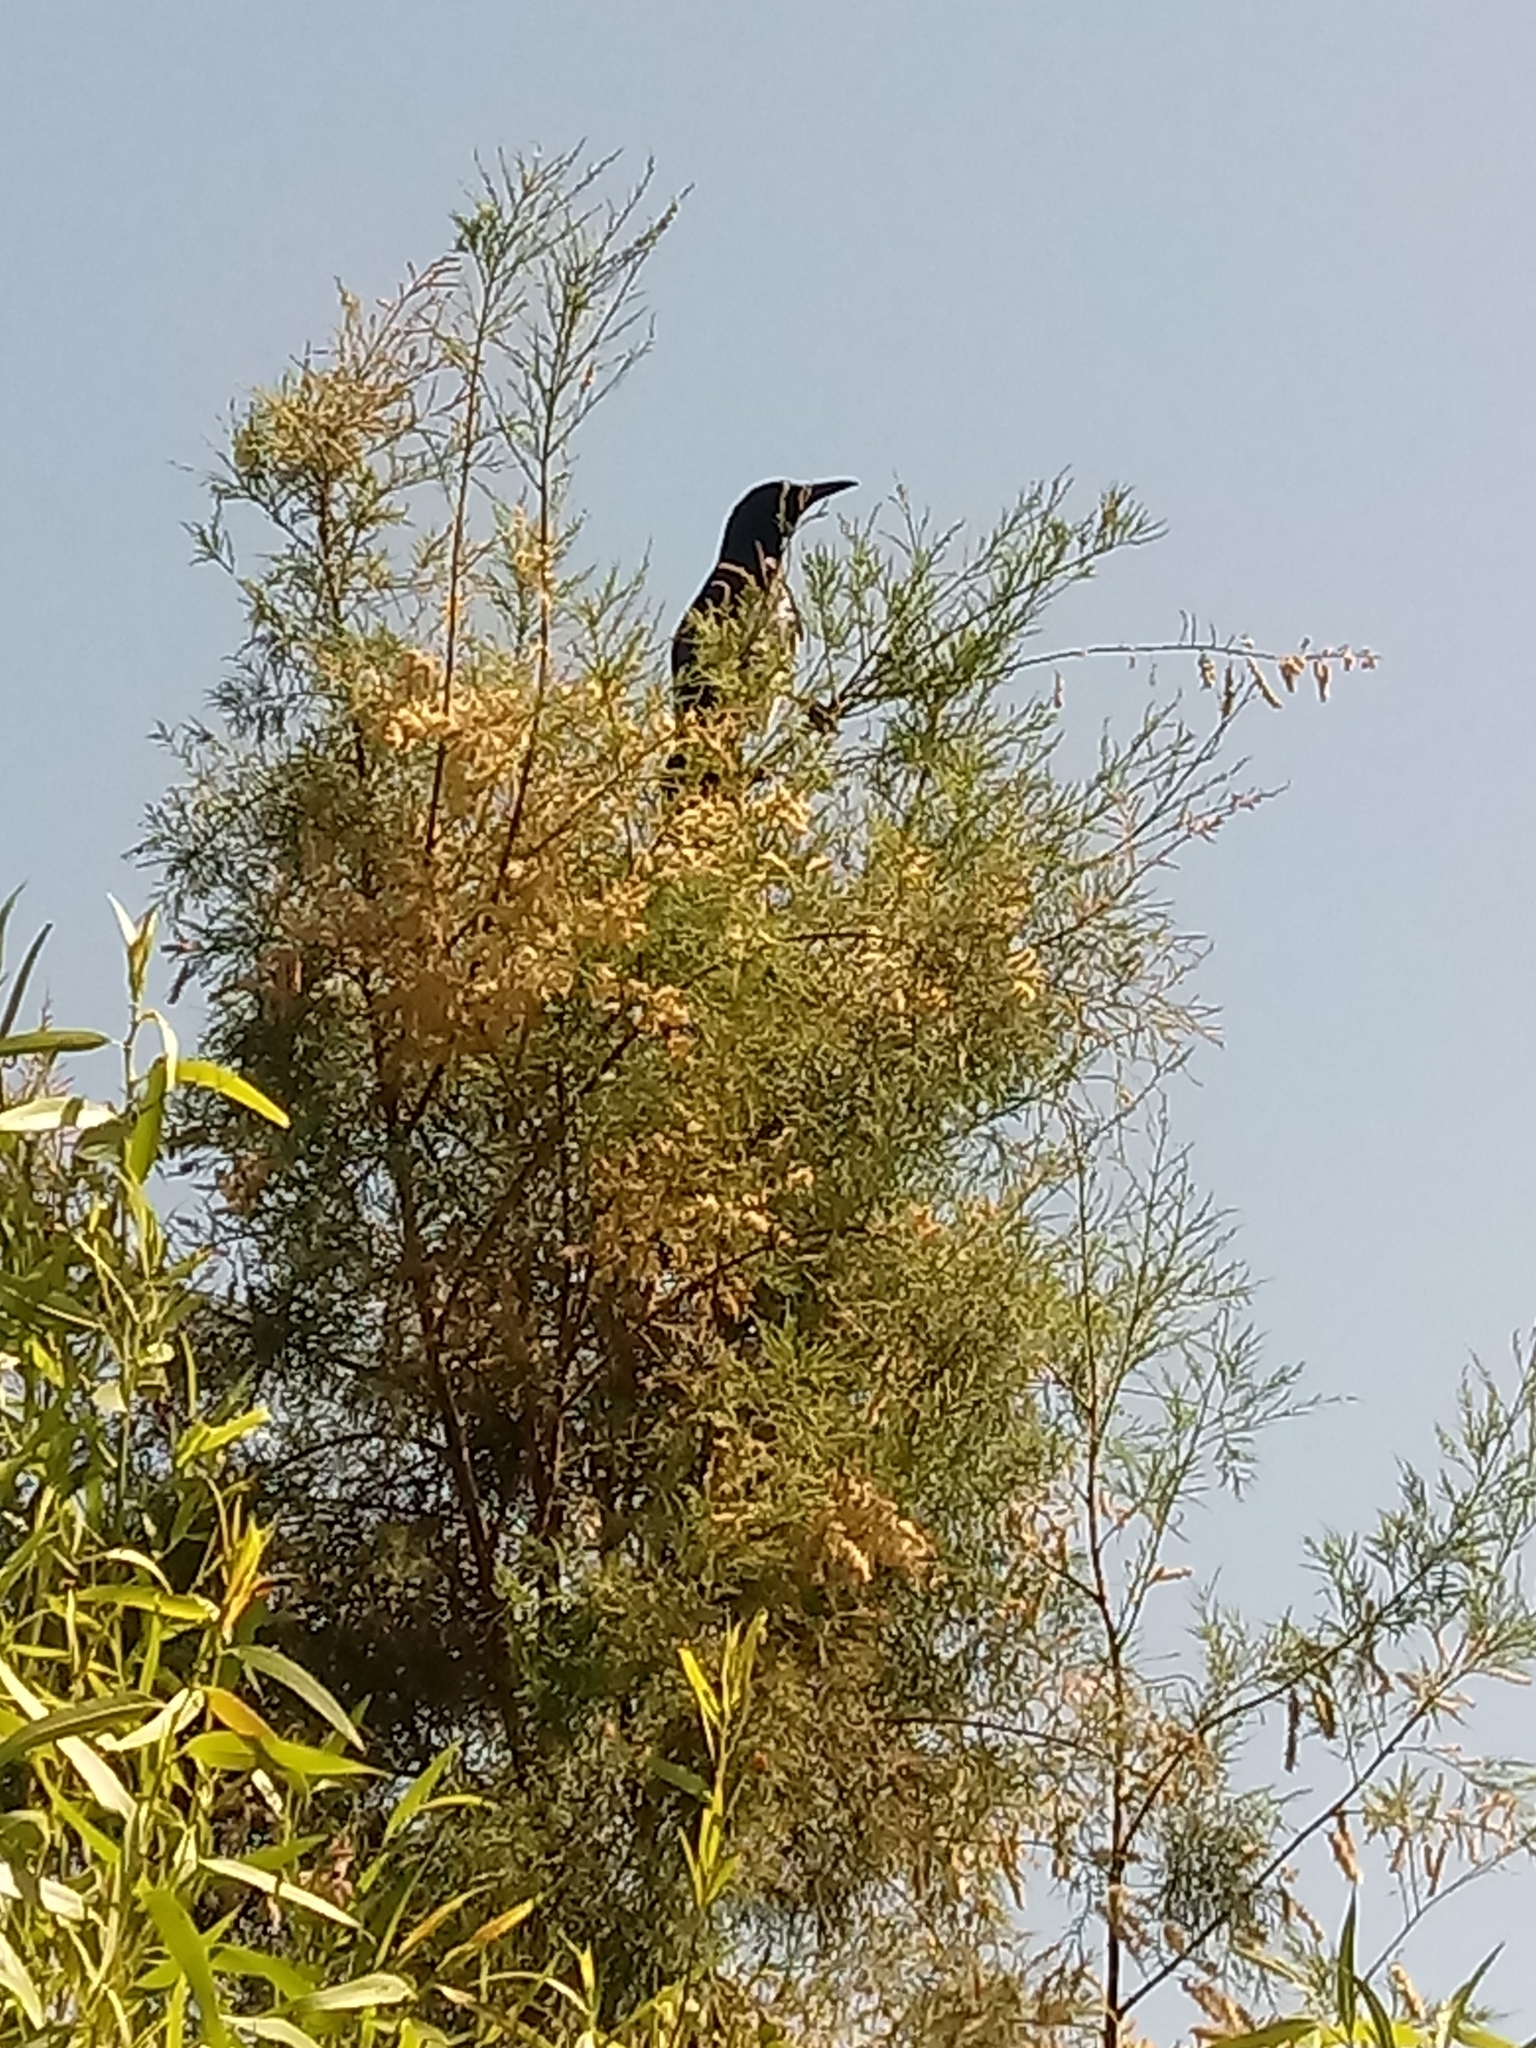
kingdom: Animalia
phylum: Chordata
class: Aves
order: Passeriformes
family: Icteridae
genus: Quiscalus
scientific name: Quiscalus mexicanus
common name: Great-tailed grackle
